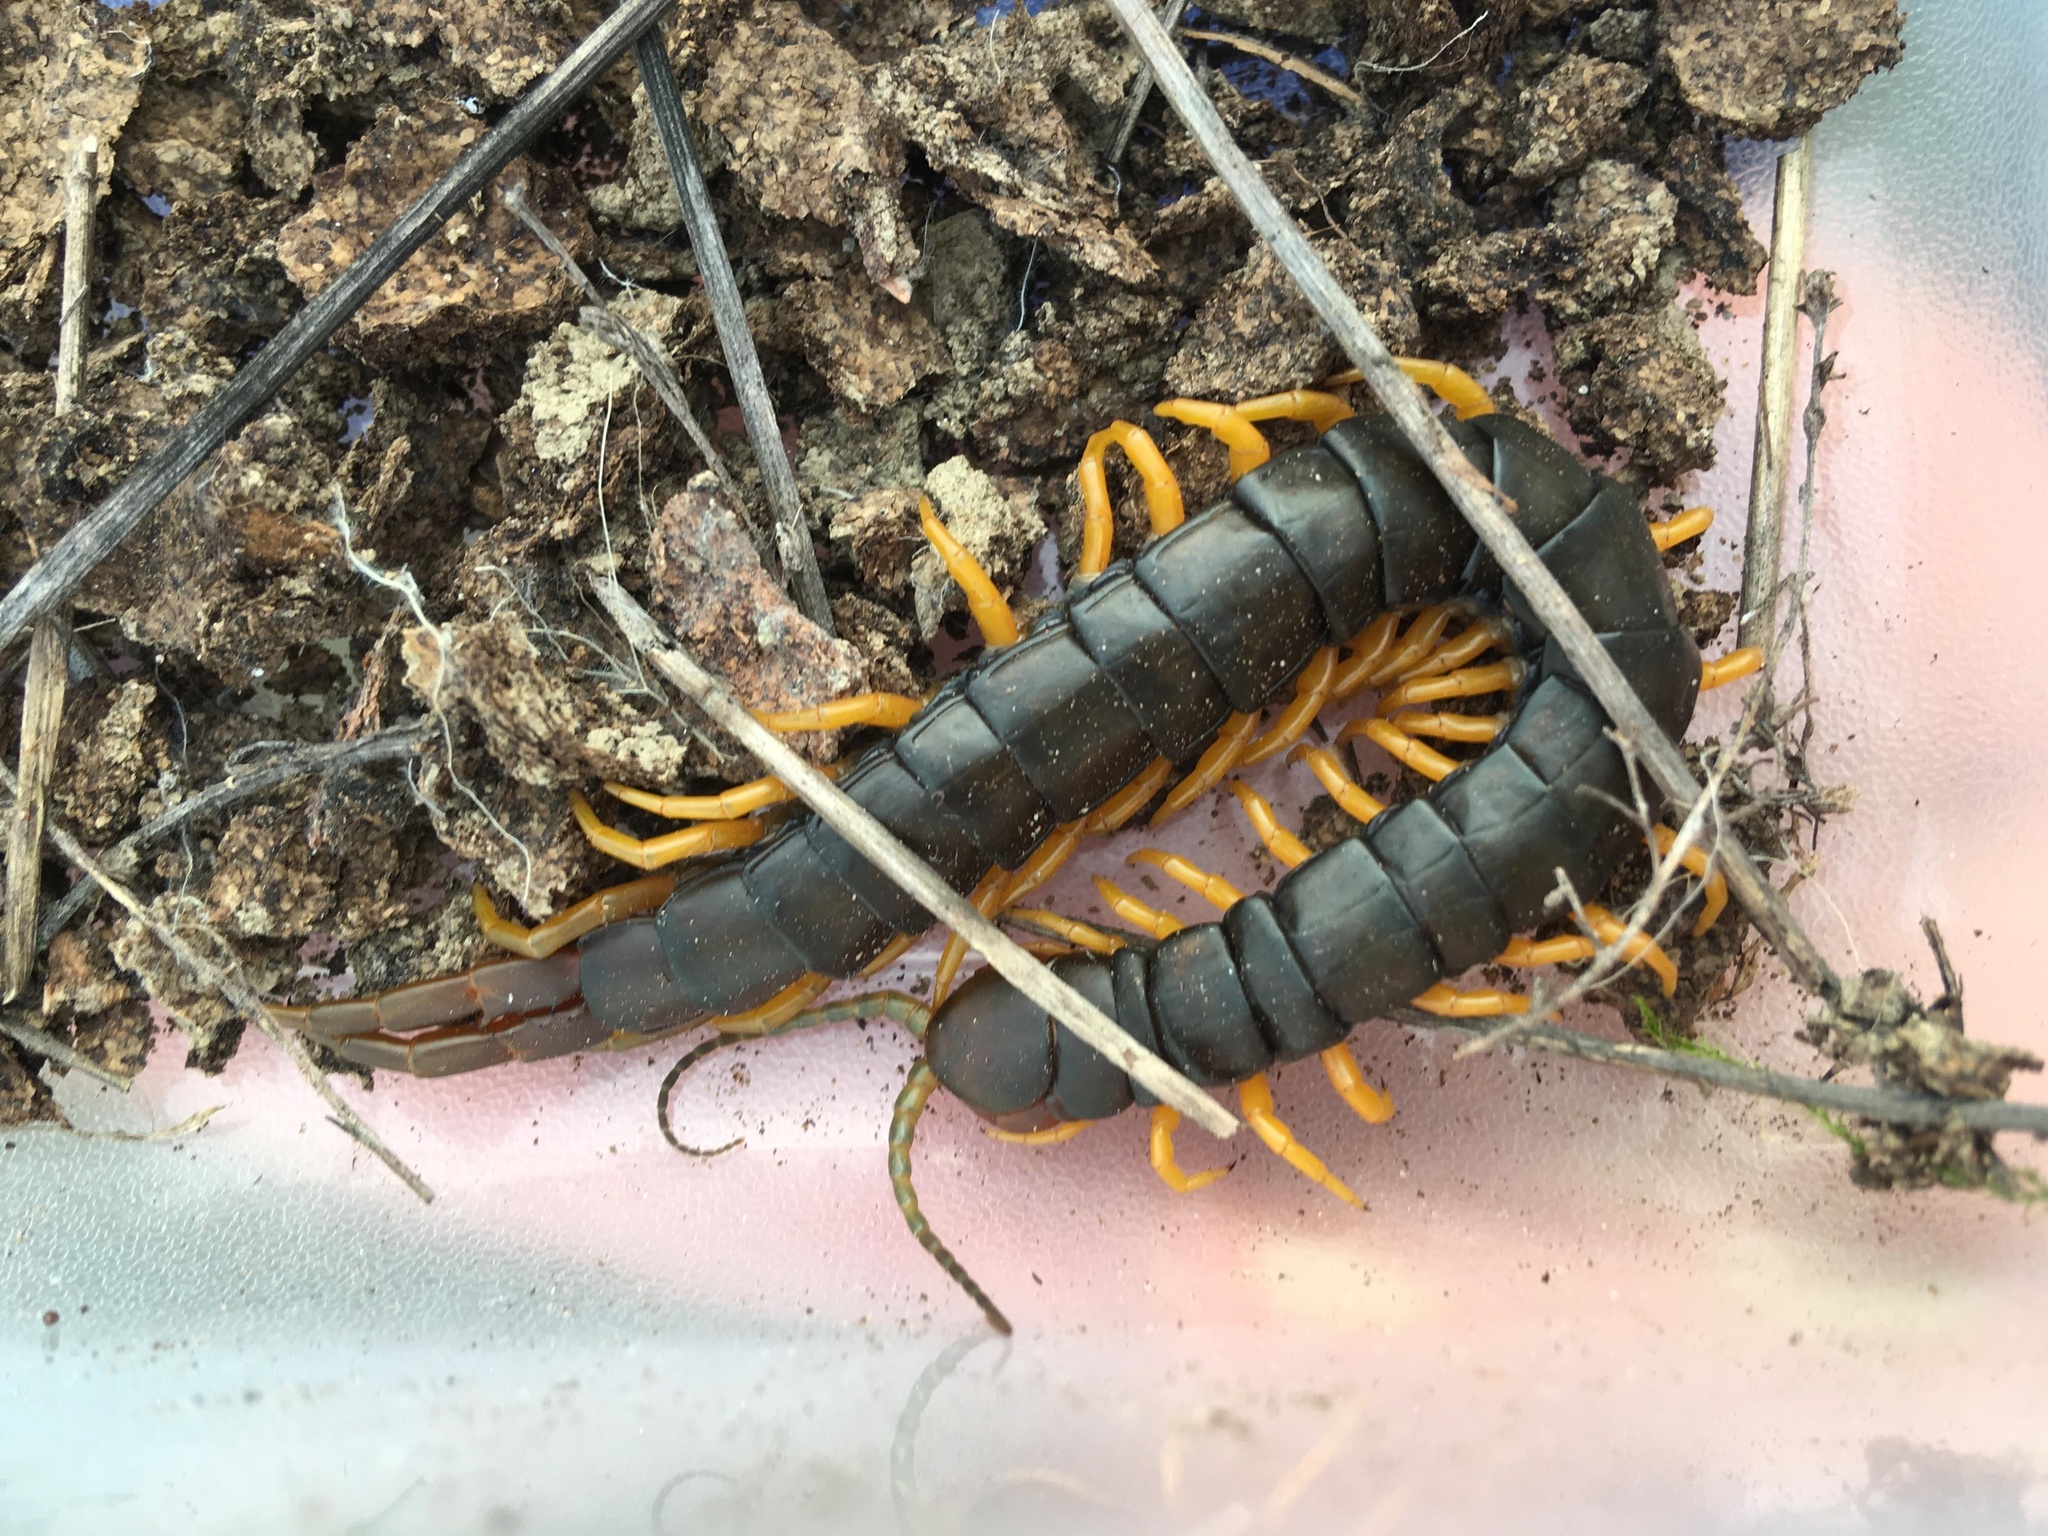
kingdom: Animalia
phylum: Arthropoda
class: Chilopoda
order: Scolopendromorpha
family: Scolopendridae
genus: Scolopendra
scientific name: Scolopendra cingulata
